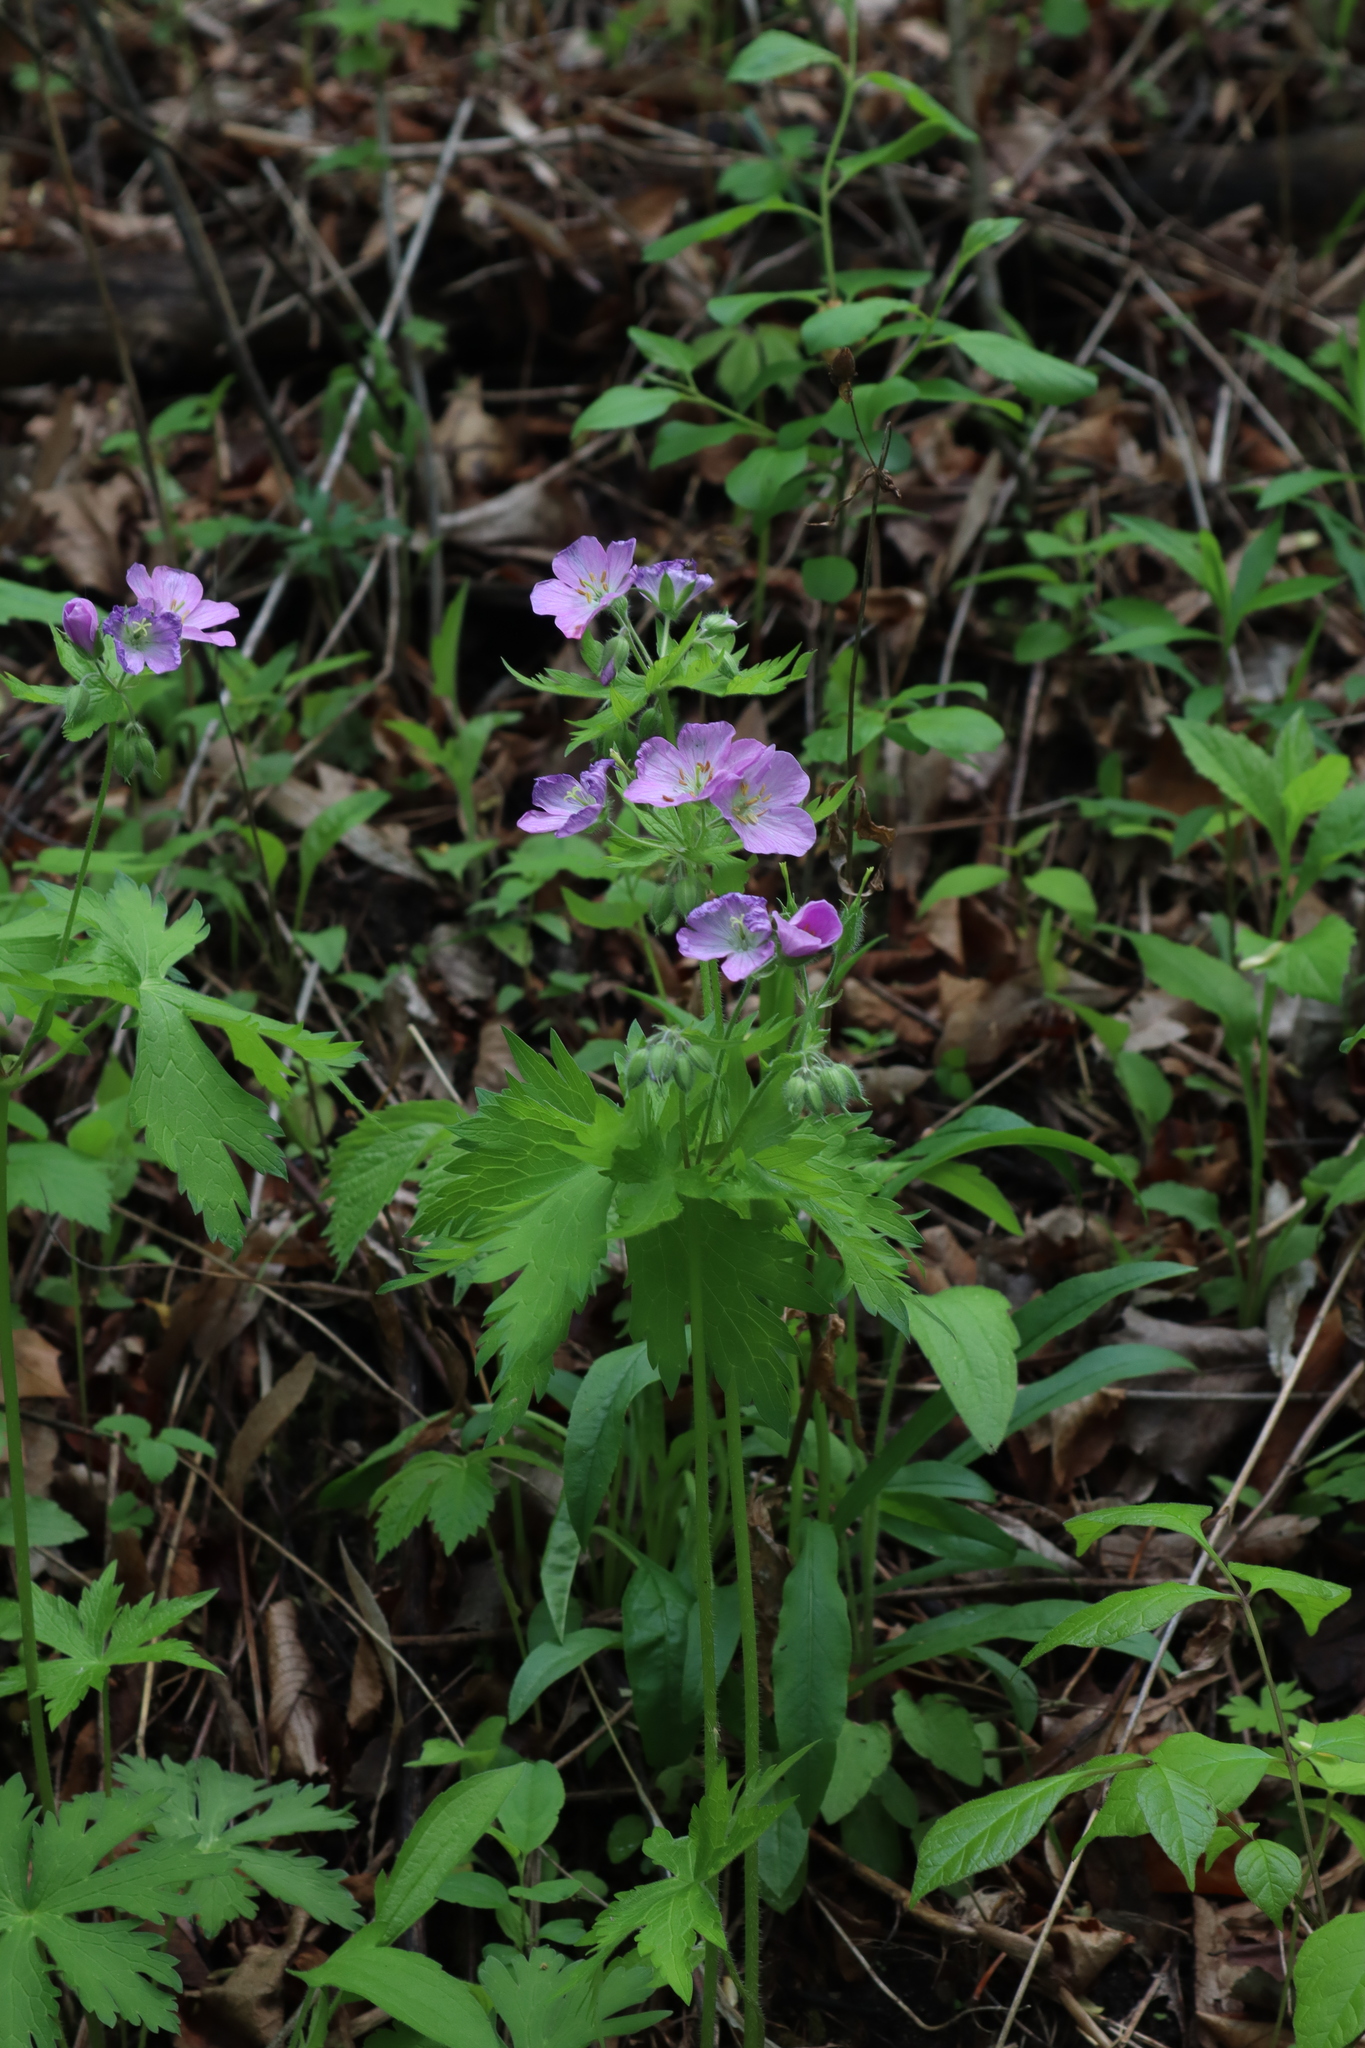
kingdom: Plantae
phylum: Tracheophyta
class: Magnoliopsida
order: Geraniales
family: Geraniaceae
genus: Geranium
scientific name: Geranium maculatum
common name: Spotted geranium
